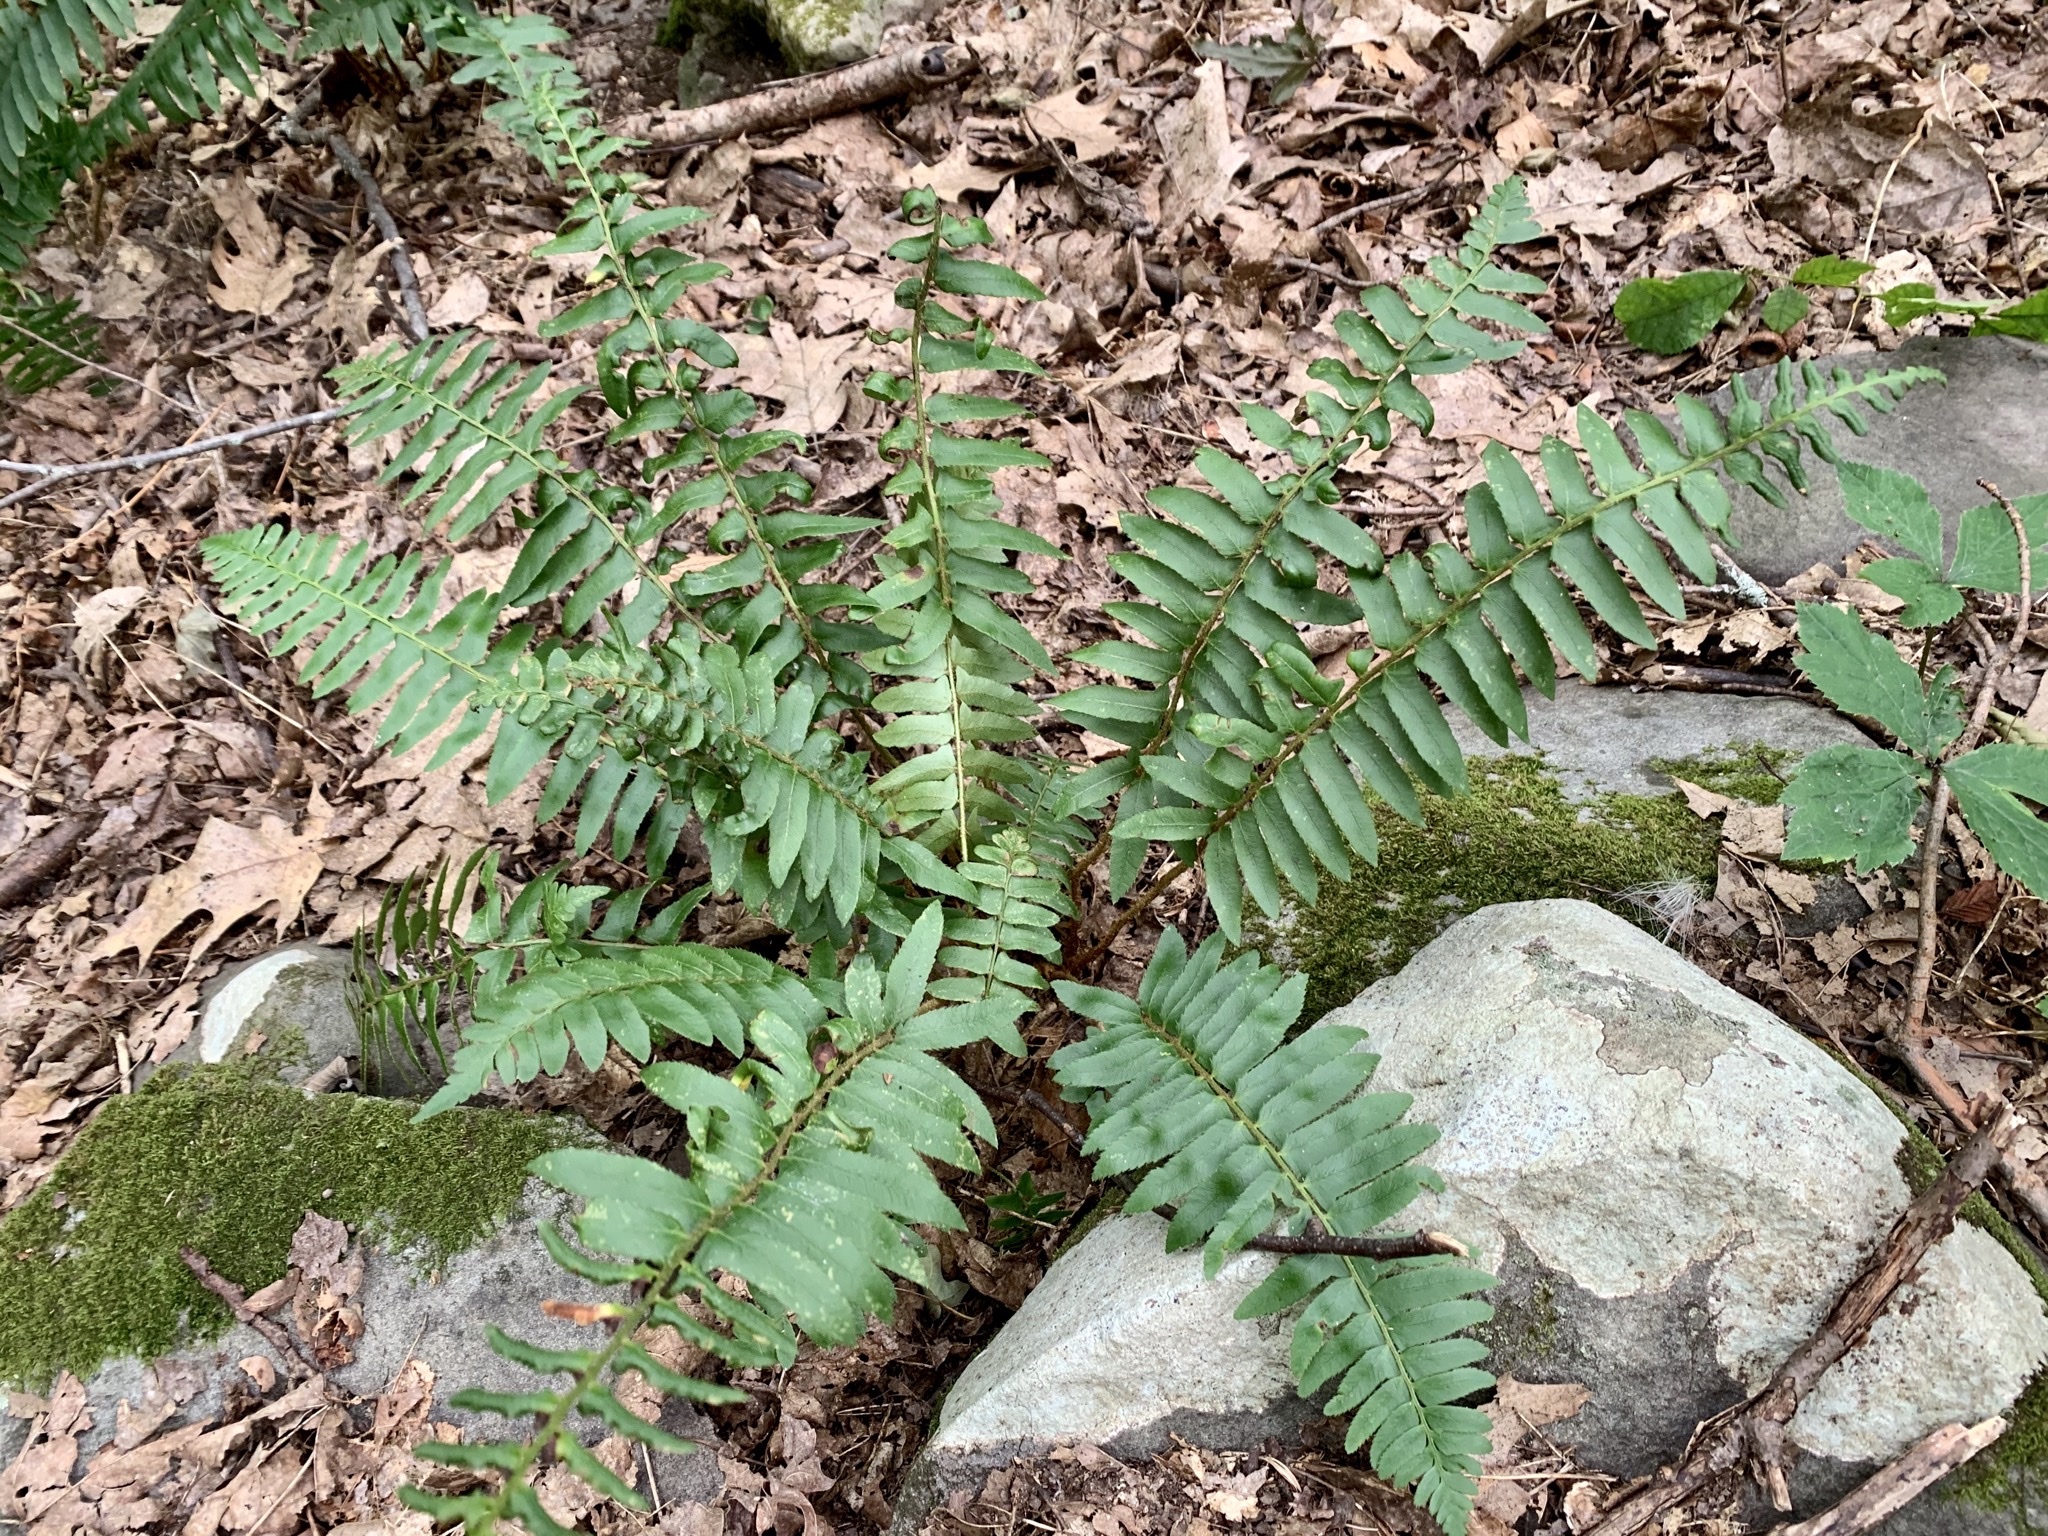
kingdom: Plantae
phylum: Tracheophyta
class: Polypodiopsida
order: Polypodiales
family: Dryopteridaceae
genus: Polystichum
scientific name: Polystichum acrostichoides
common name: Christmas fern
